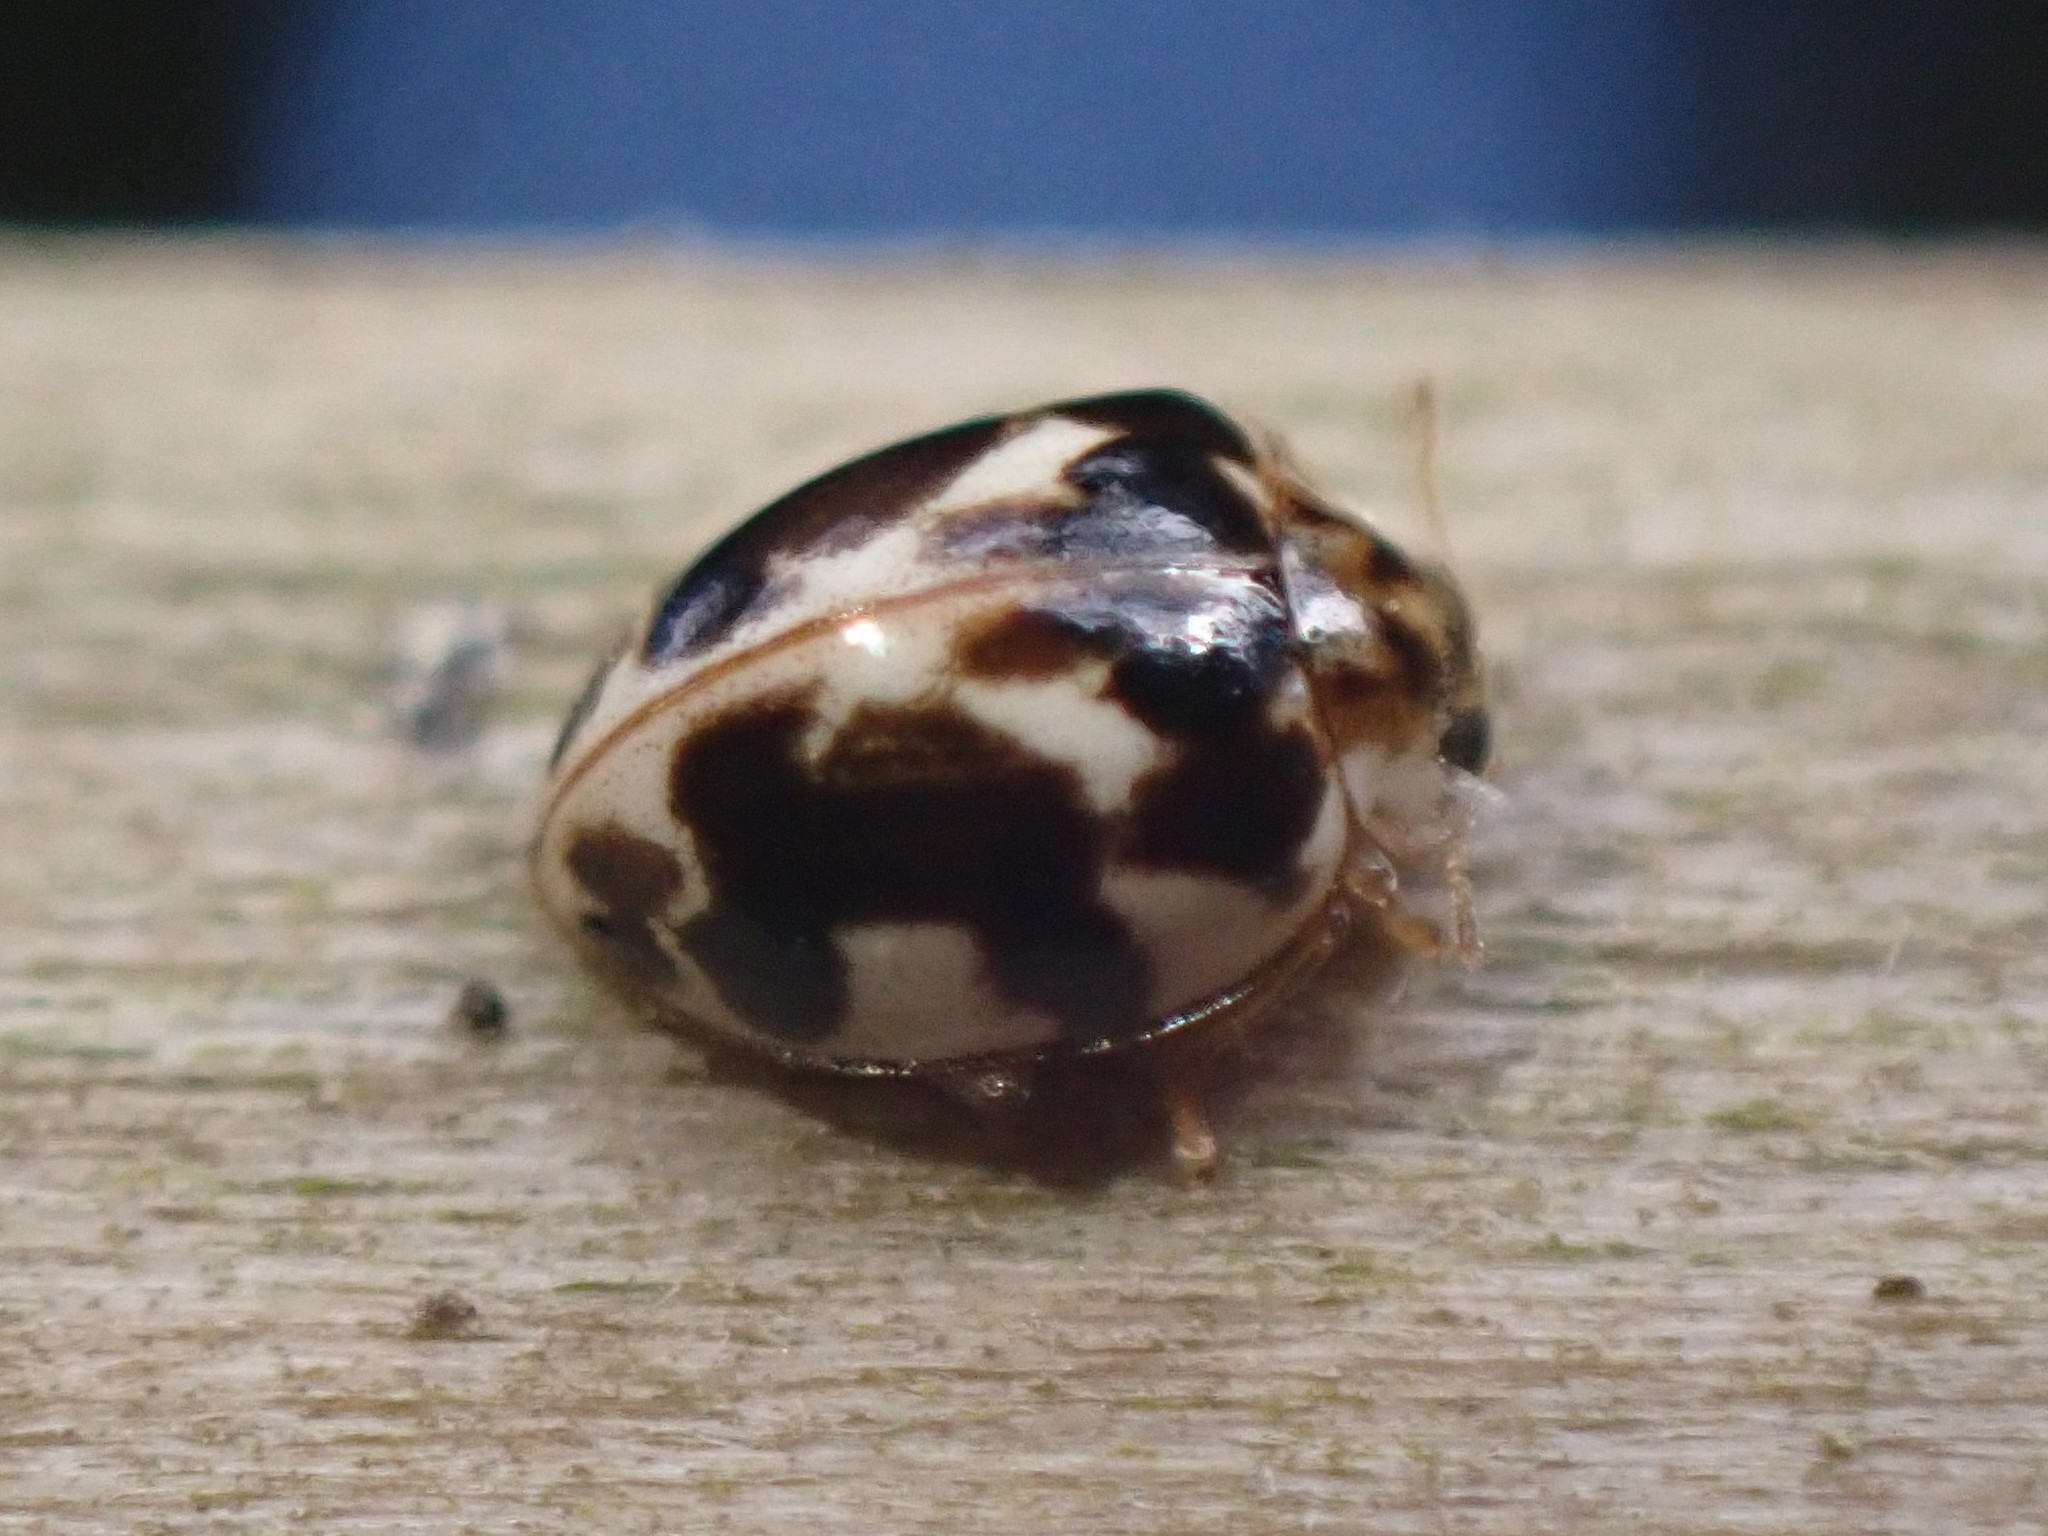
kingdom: Animalia
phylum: Arthropoda
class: Insecta
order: Coleoptera
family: Coccinellidae
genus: Psyllobora
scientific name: Psyllobora vigintimaculata
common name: Ladybird beetle
